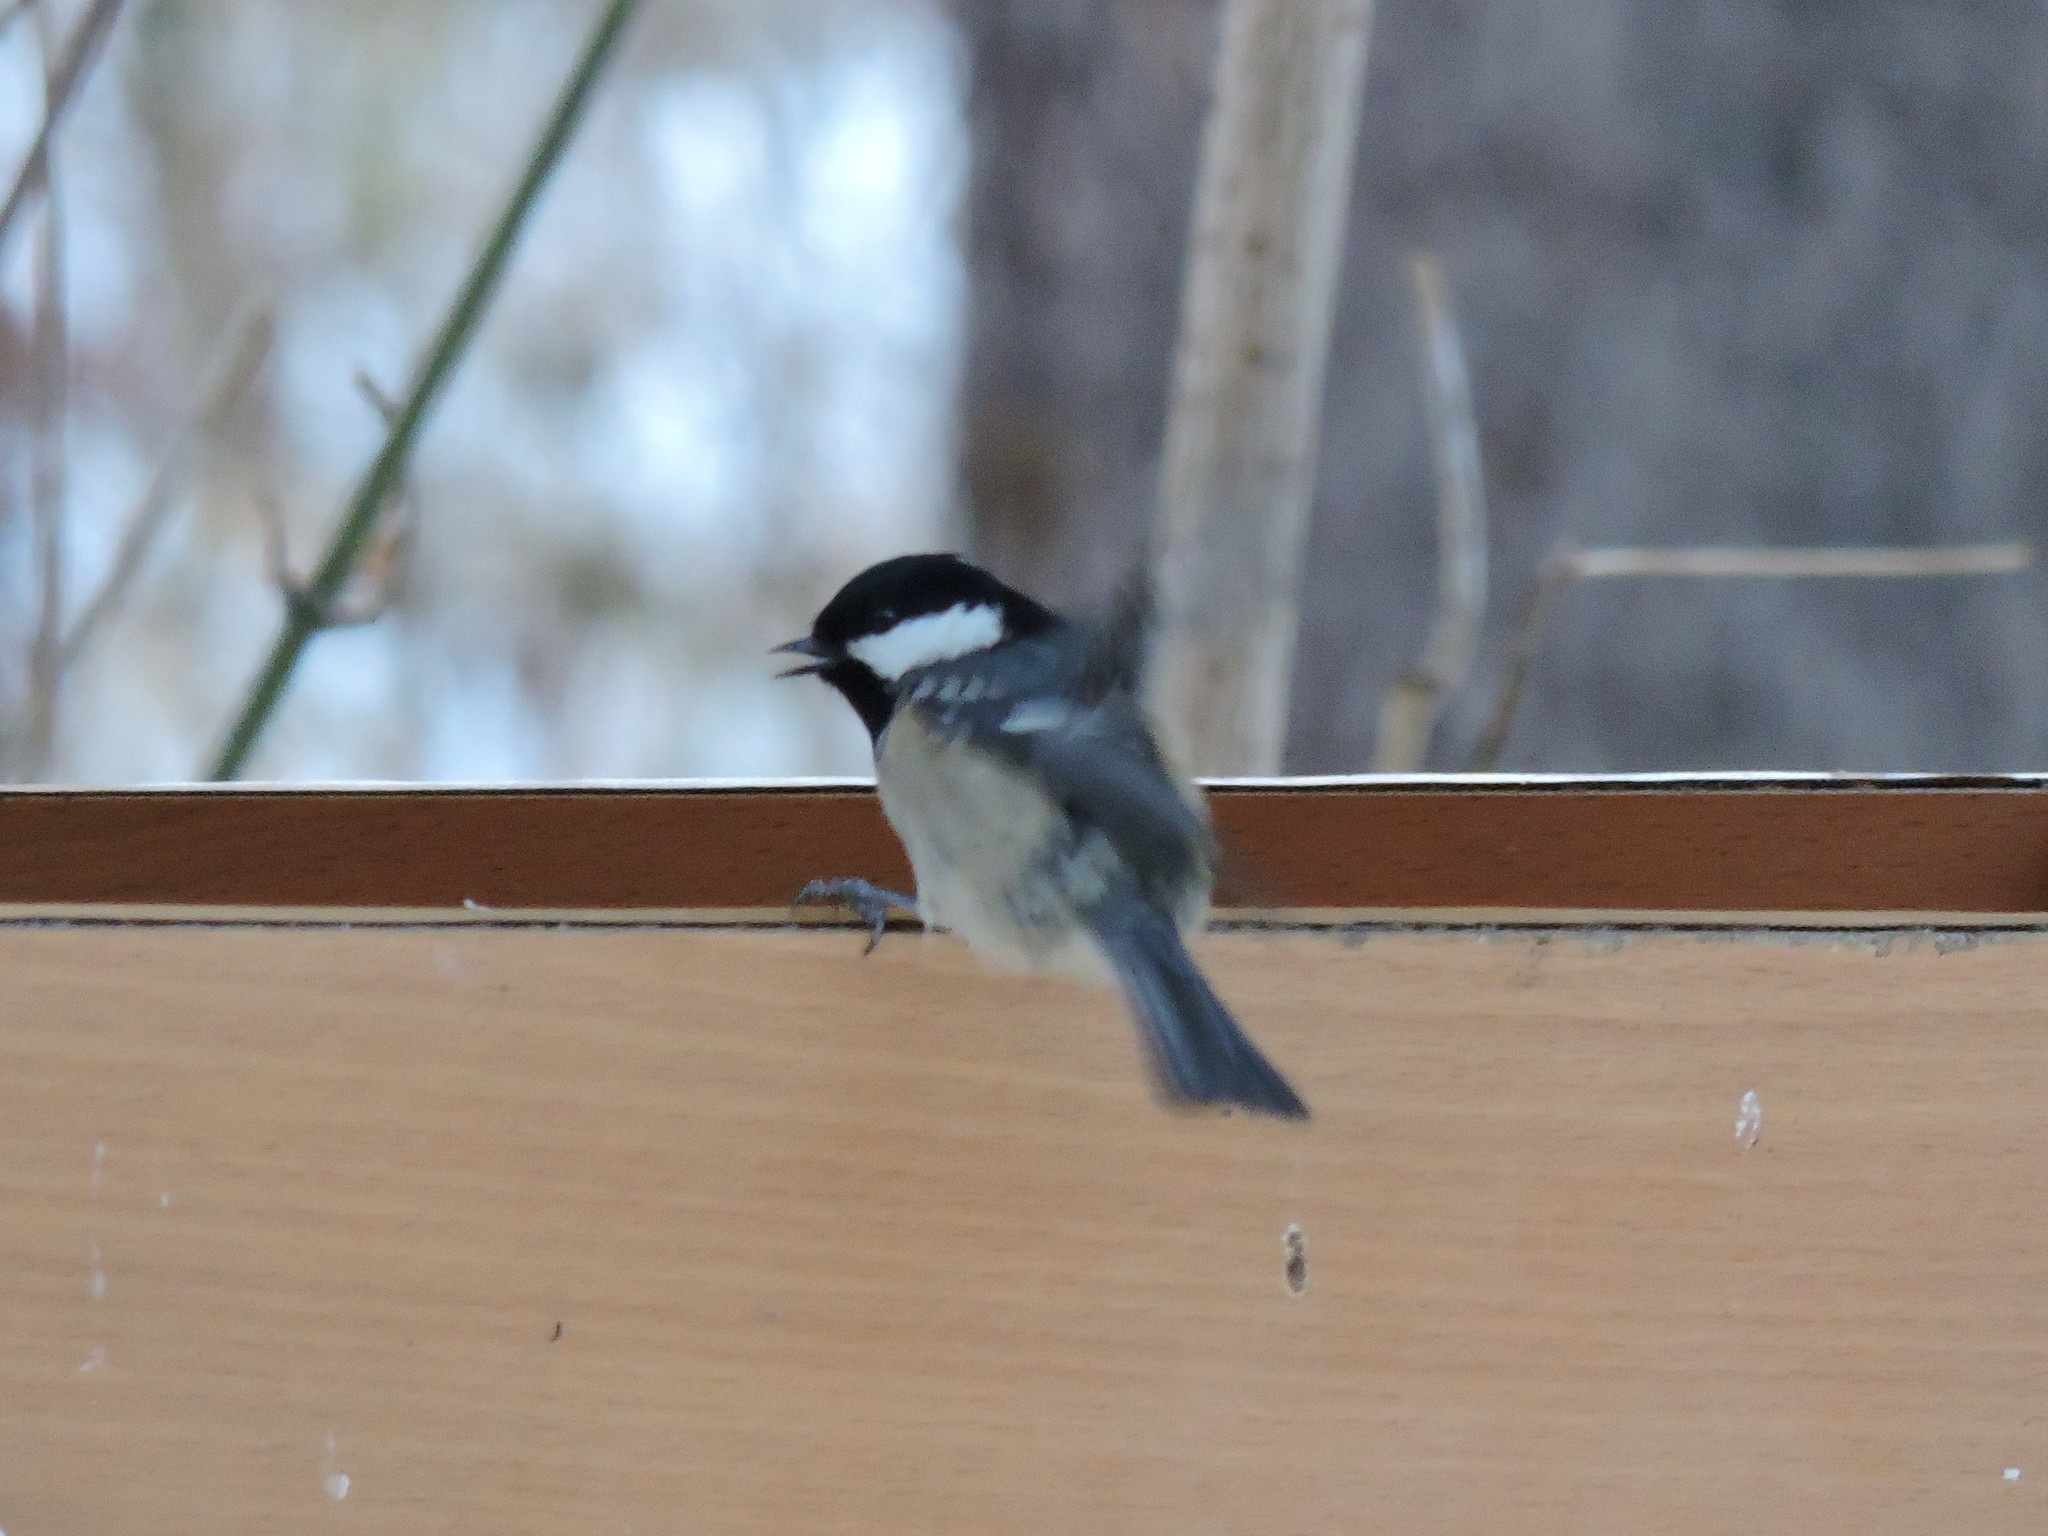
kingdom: Animalia
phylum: Chordata
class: Aves
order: Passeriformes
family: Paridae
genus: Periparus
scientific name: Periparus ater
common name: Coal tit
